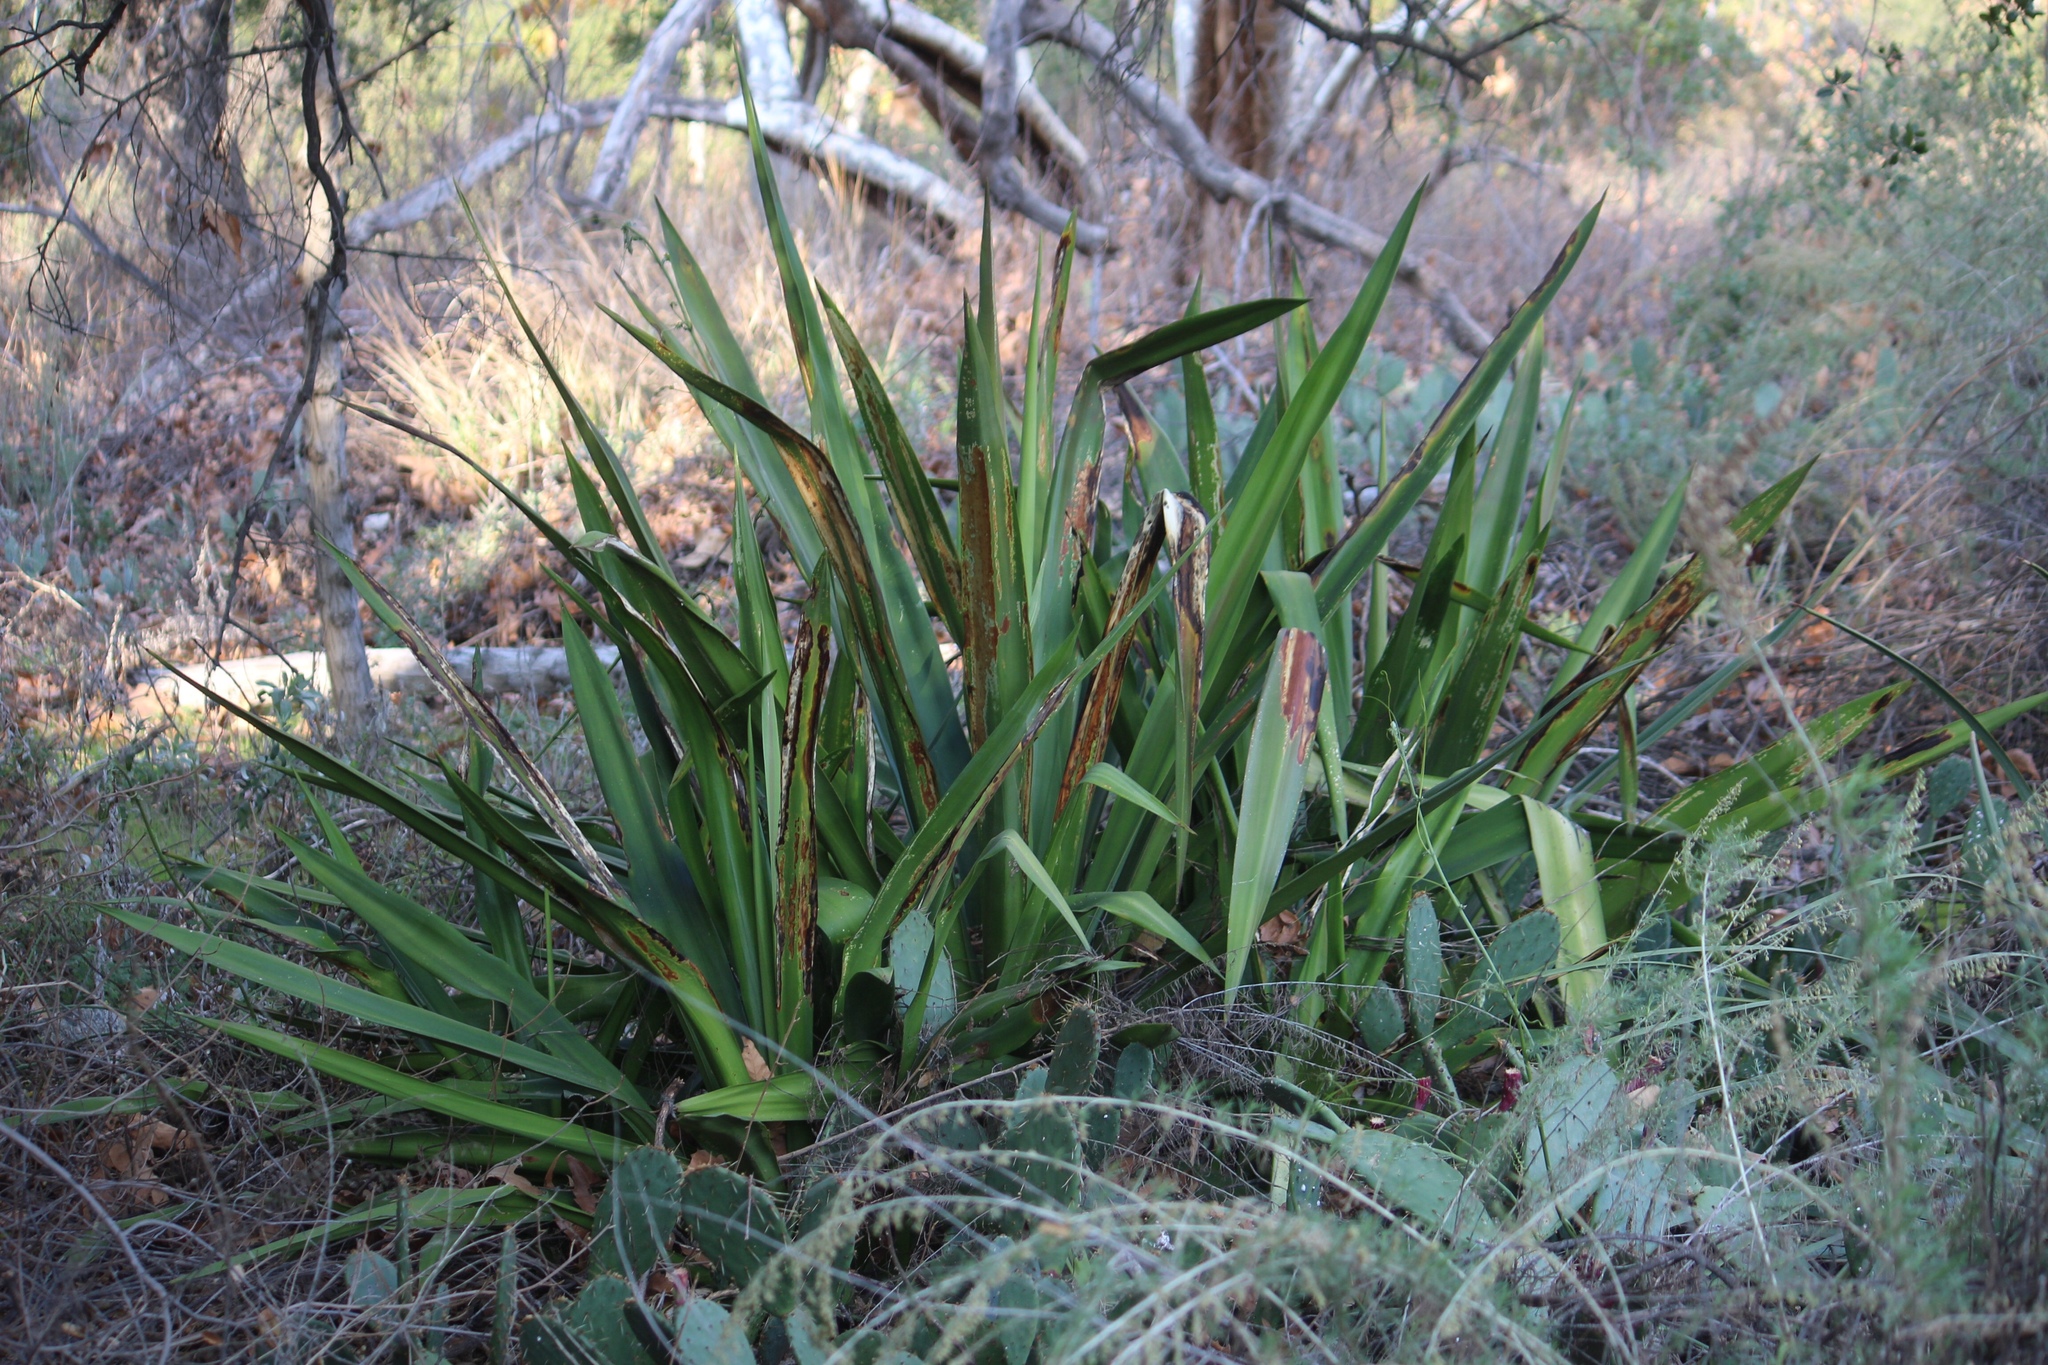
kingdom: Plantae
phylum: Tracheophyta
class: Liliopsida
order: Asparagales
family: Asparagaceae
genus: Furcraea
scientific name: Furcraea foetida
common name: Mauritius hemp
